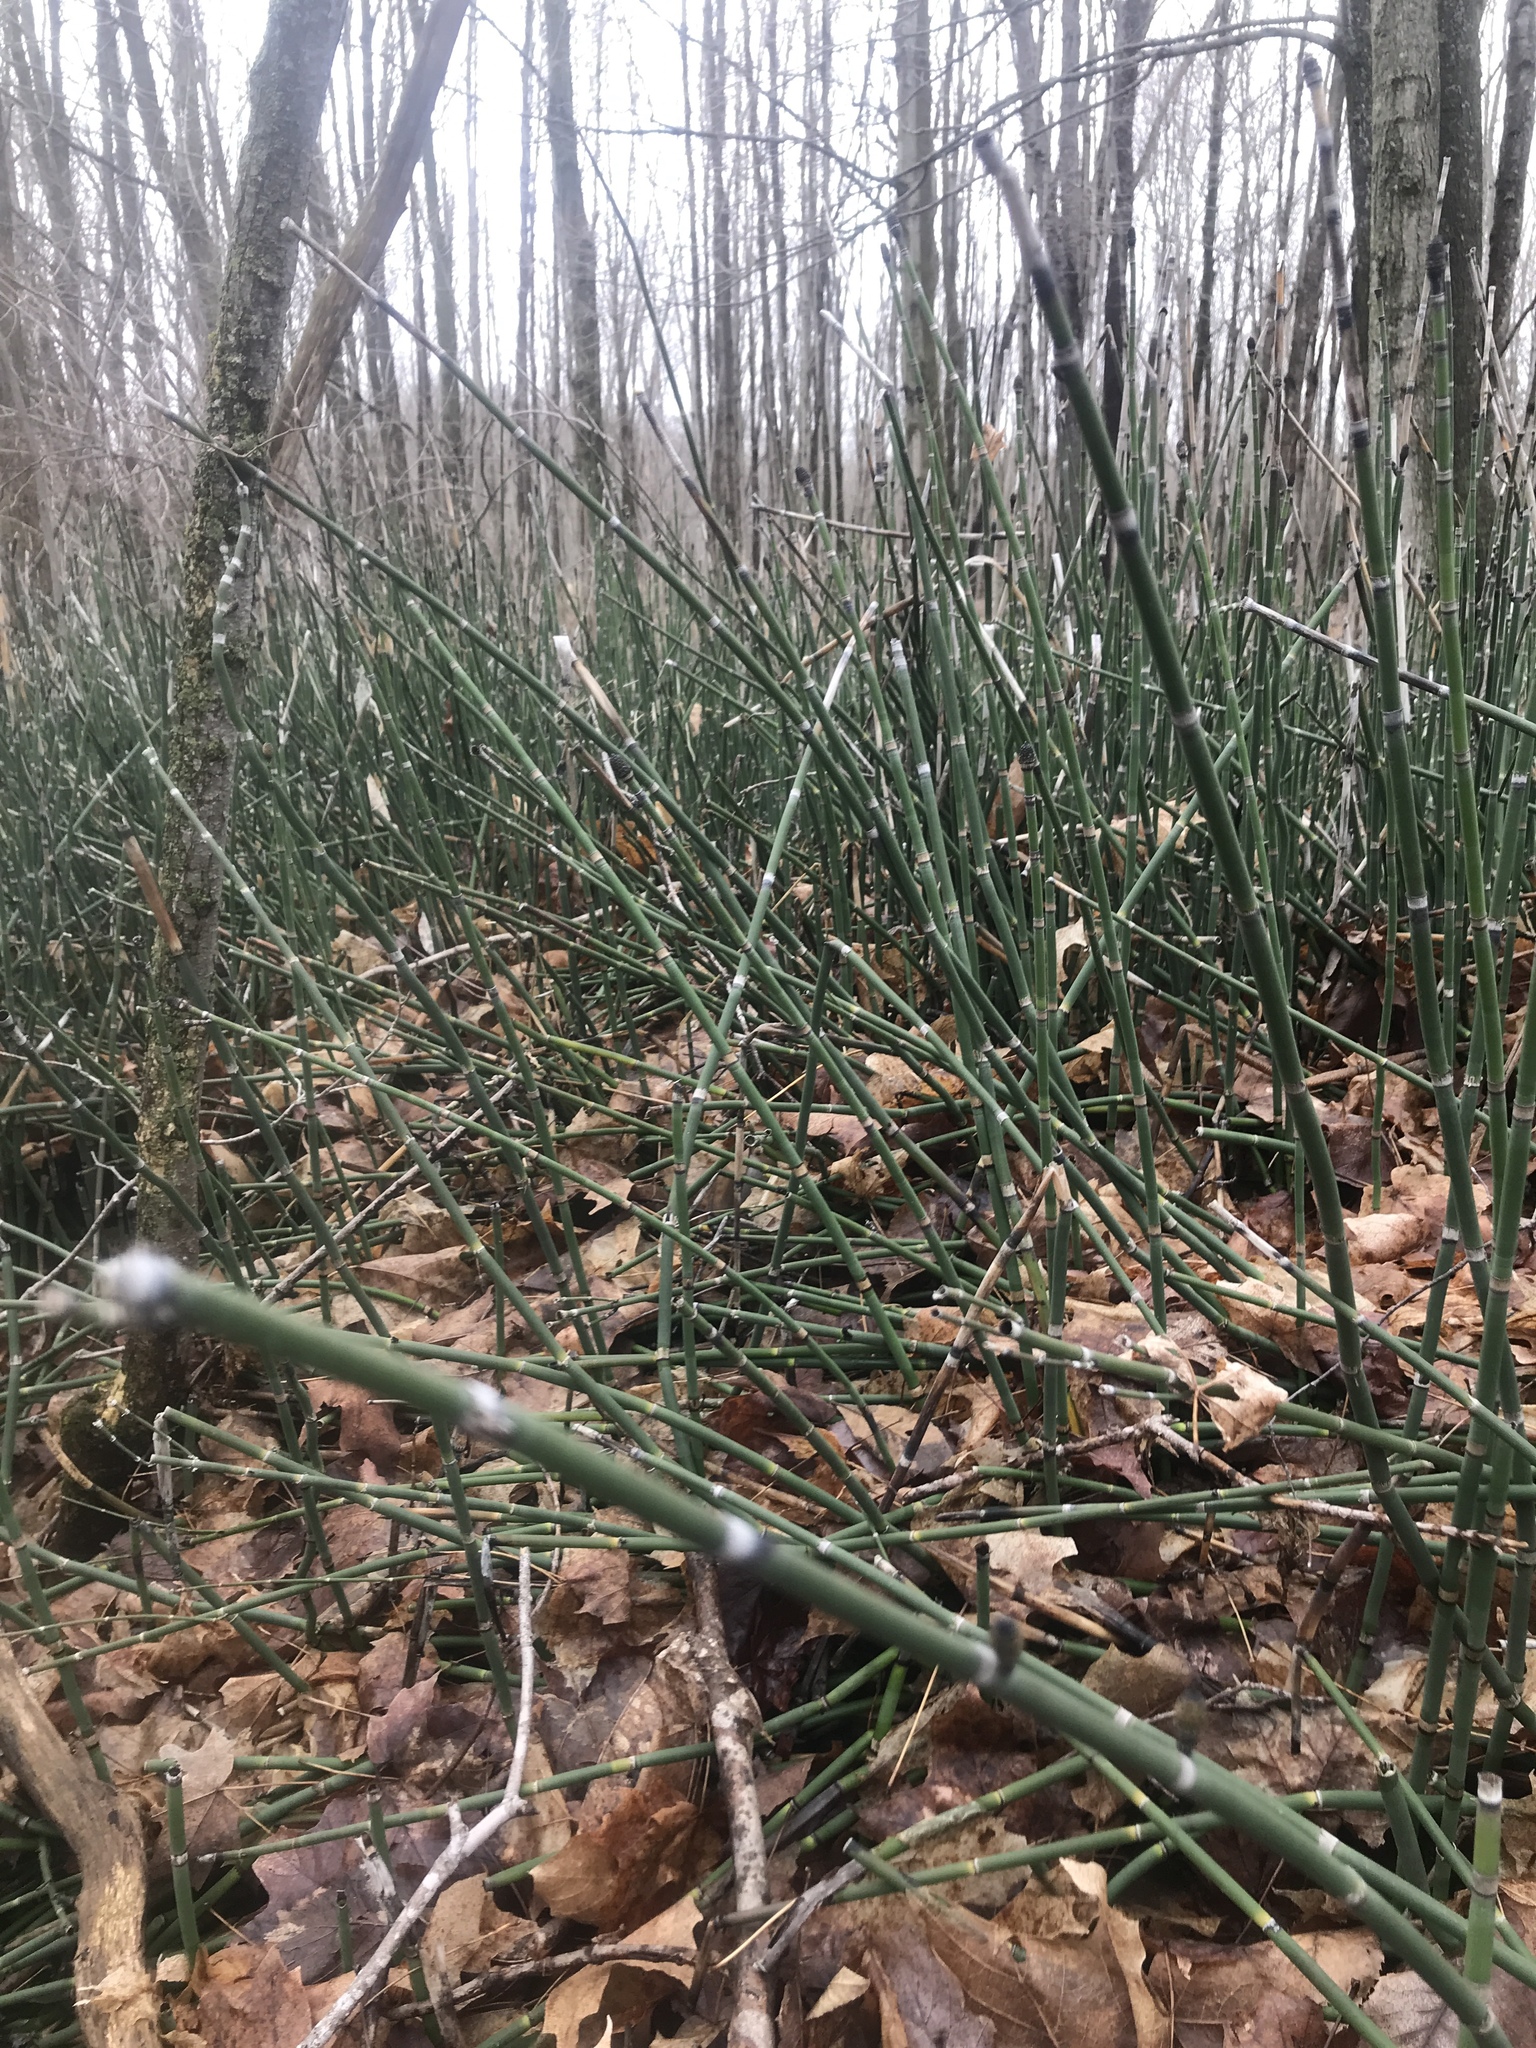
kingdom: Plantae
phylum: Tracheophyta
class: Polypodiopsida
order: Equisetales
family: Equisetaceae
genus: Equisetum
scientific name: Equisetum hyemale
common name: Rough horsetail
